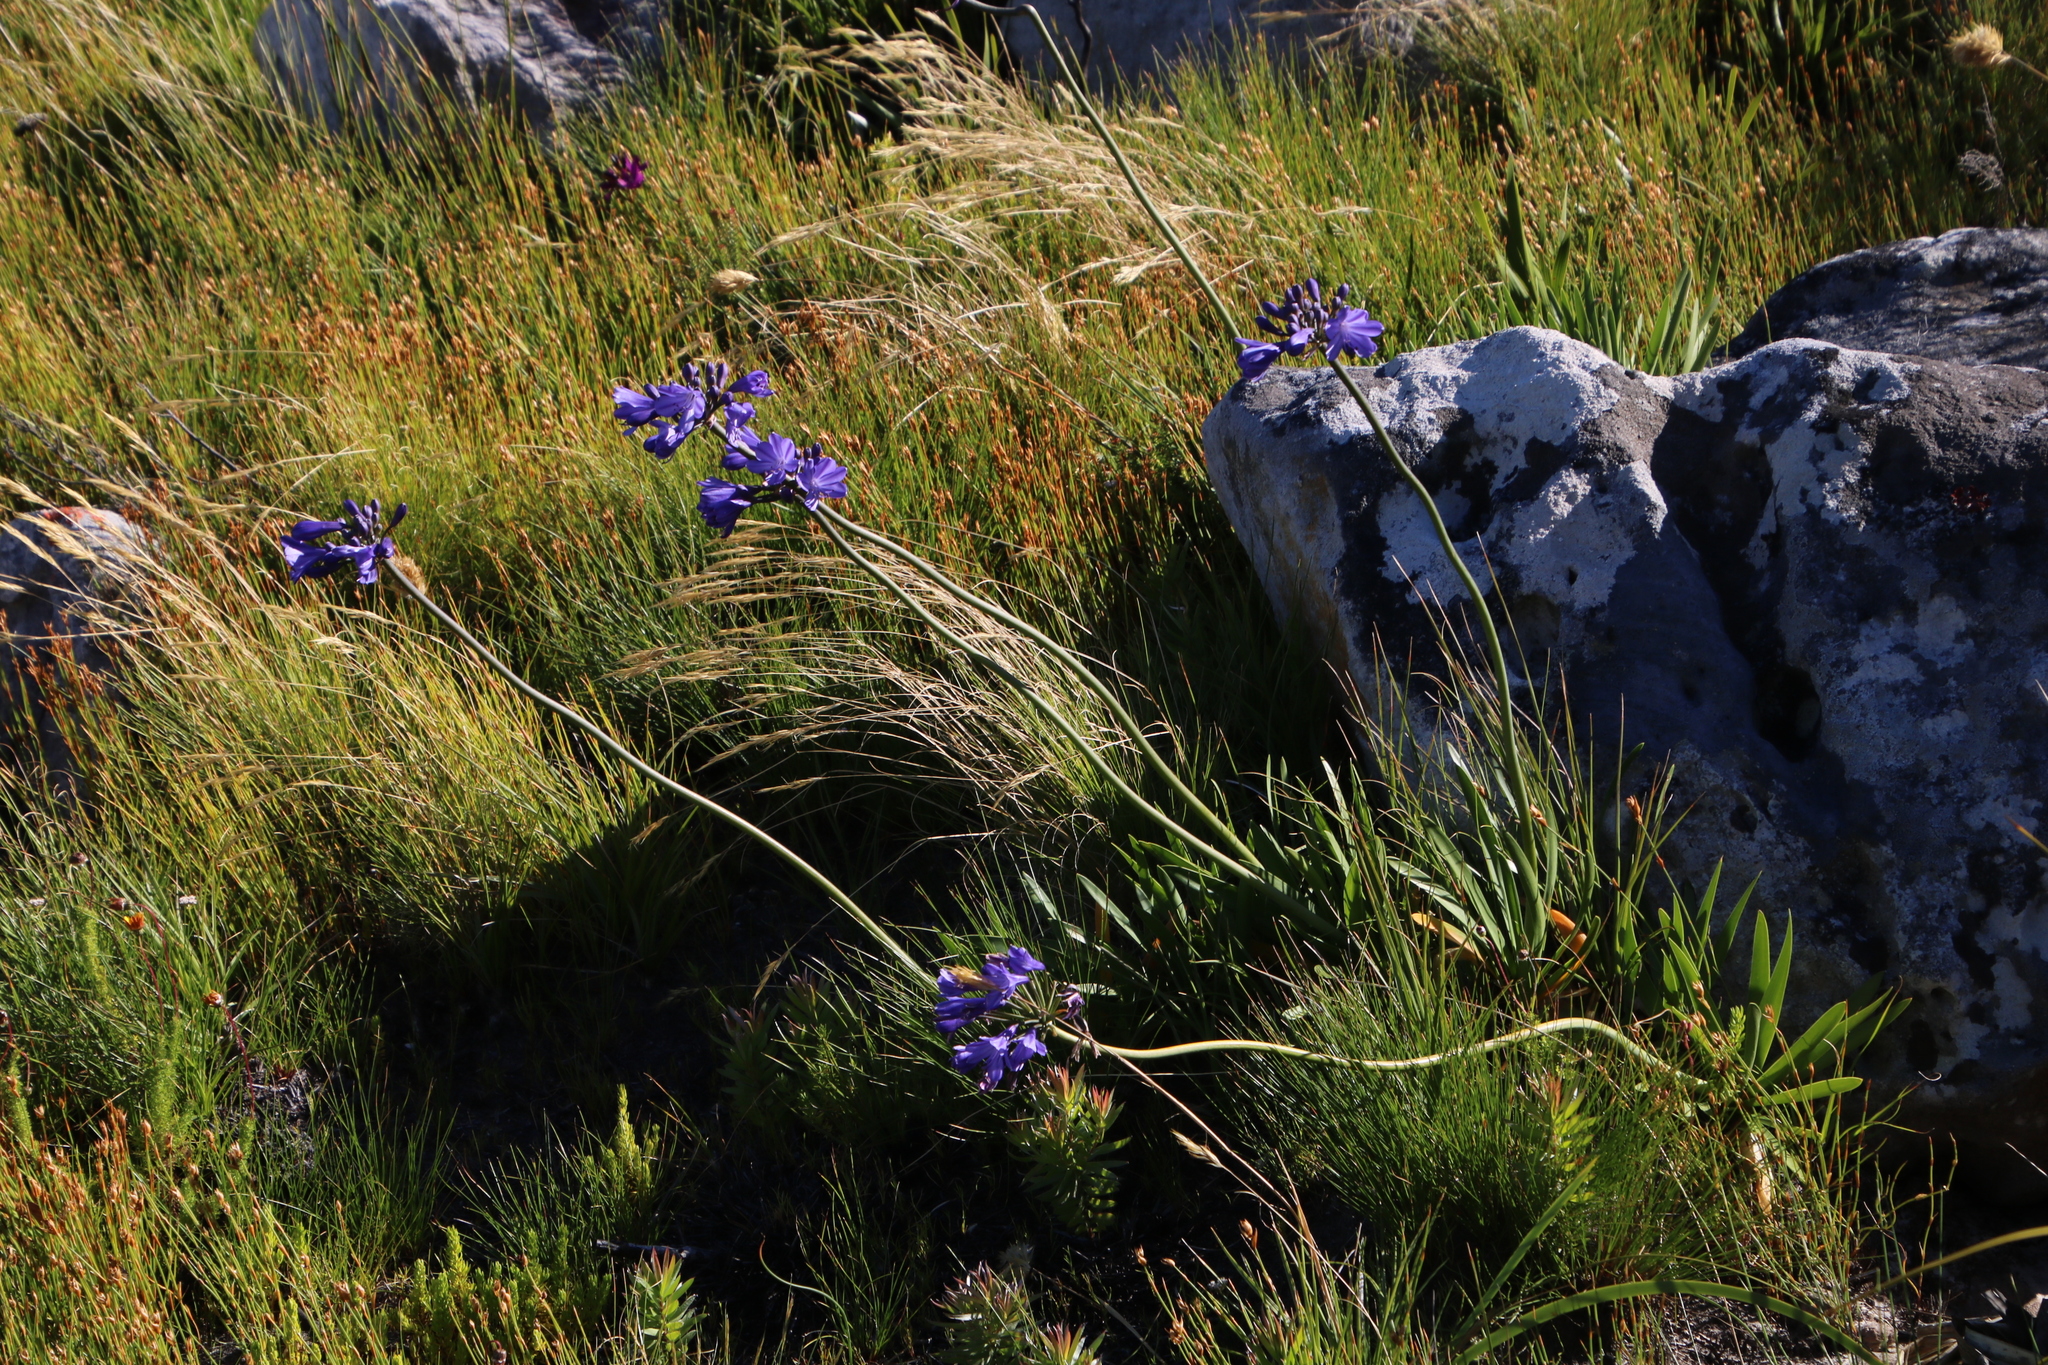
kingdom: Plantae
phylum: Tracheophyta
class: Liliopsida
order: Asparagales
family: Amaryllidaceae
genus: Agapanthus
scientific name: Agapanthus africanus
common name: Lily-of-the-nile
